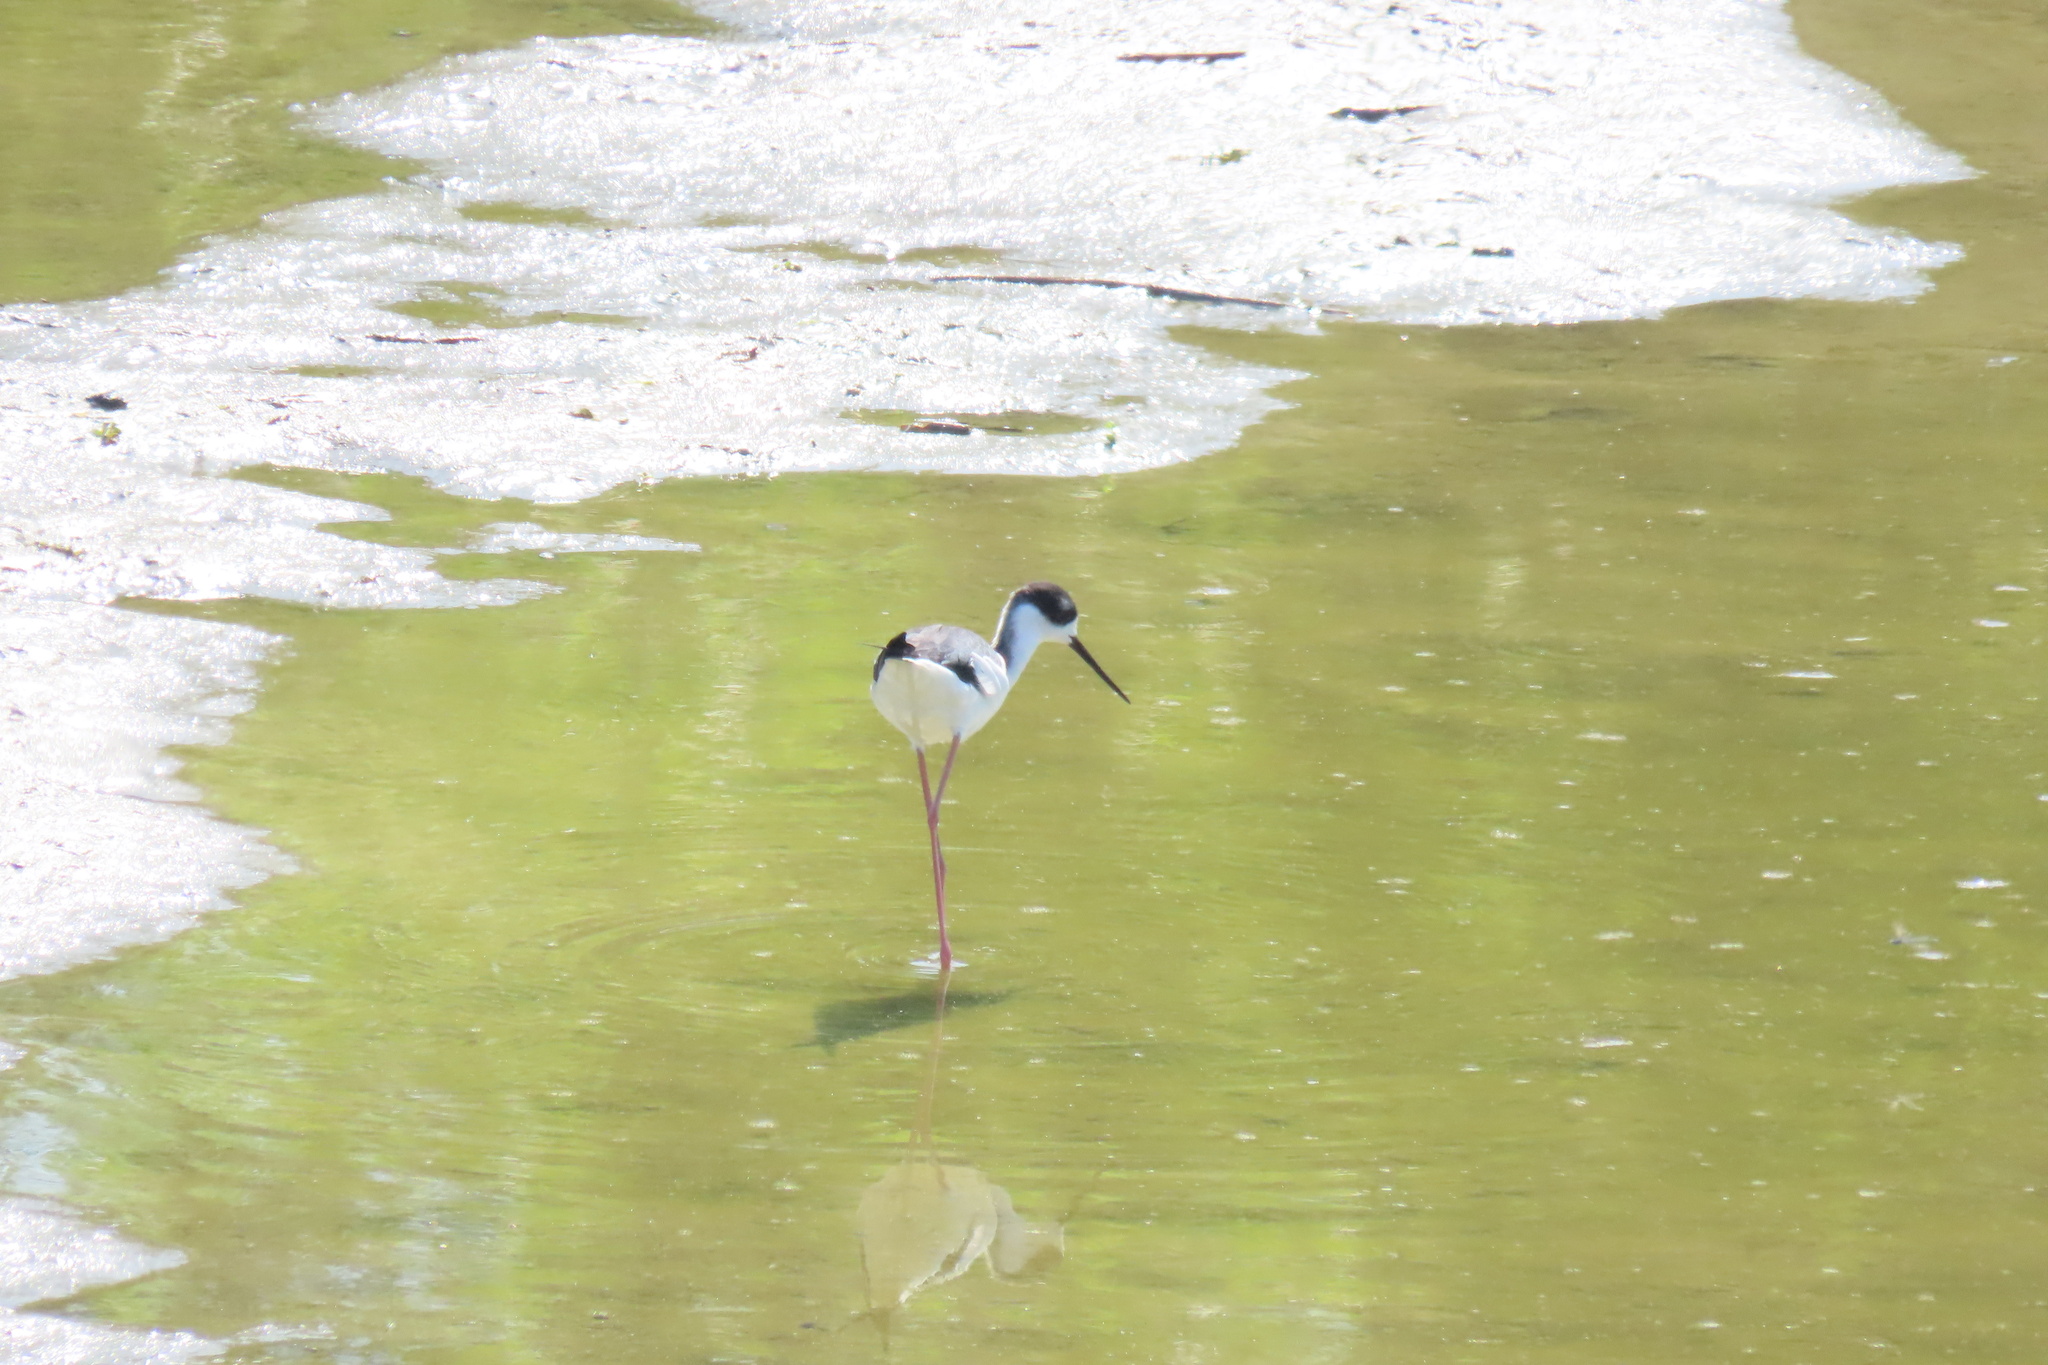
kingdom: Animalia
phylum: Chordata
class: Aves
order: Charadriiformes
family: Recurvirostridae
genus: Himantopus
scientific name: Himantopus mexicanus
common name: Black-necked stilt
